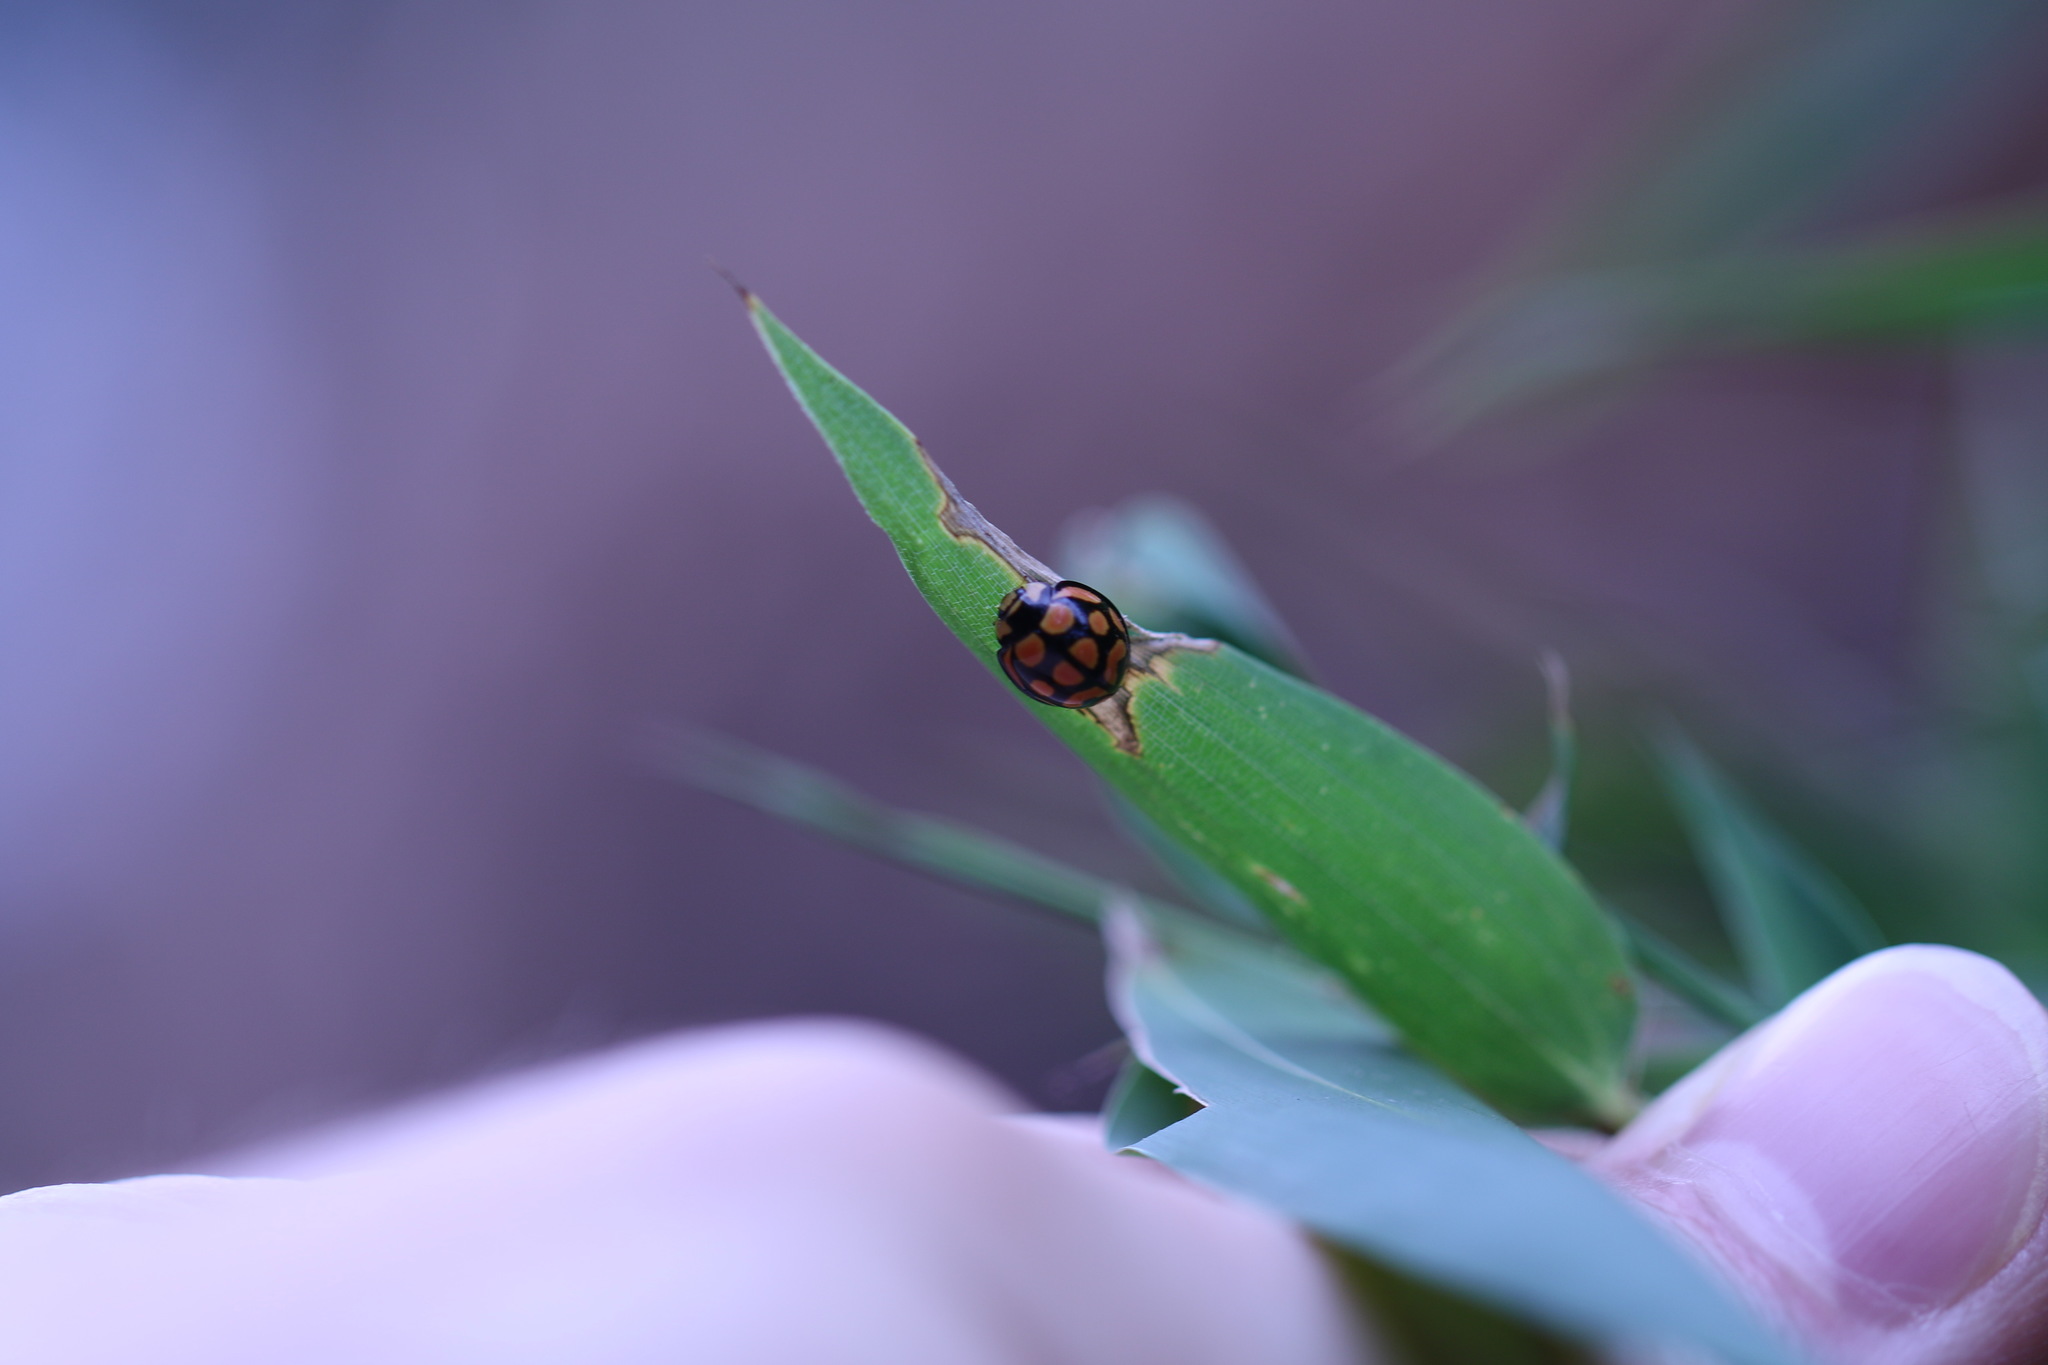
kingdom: Animalia
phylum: Arthropoda
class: Insecta
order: Coleoptera
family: Coccinellidae
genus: Cheilomenes
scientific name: Cheilomenes lunata
